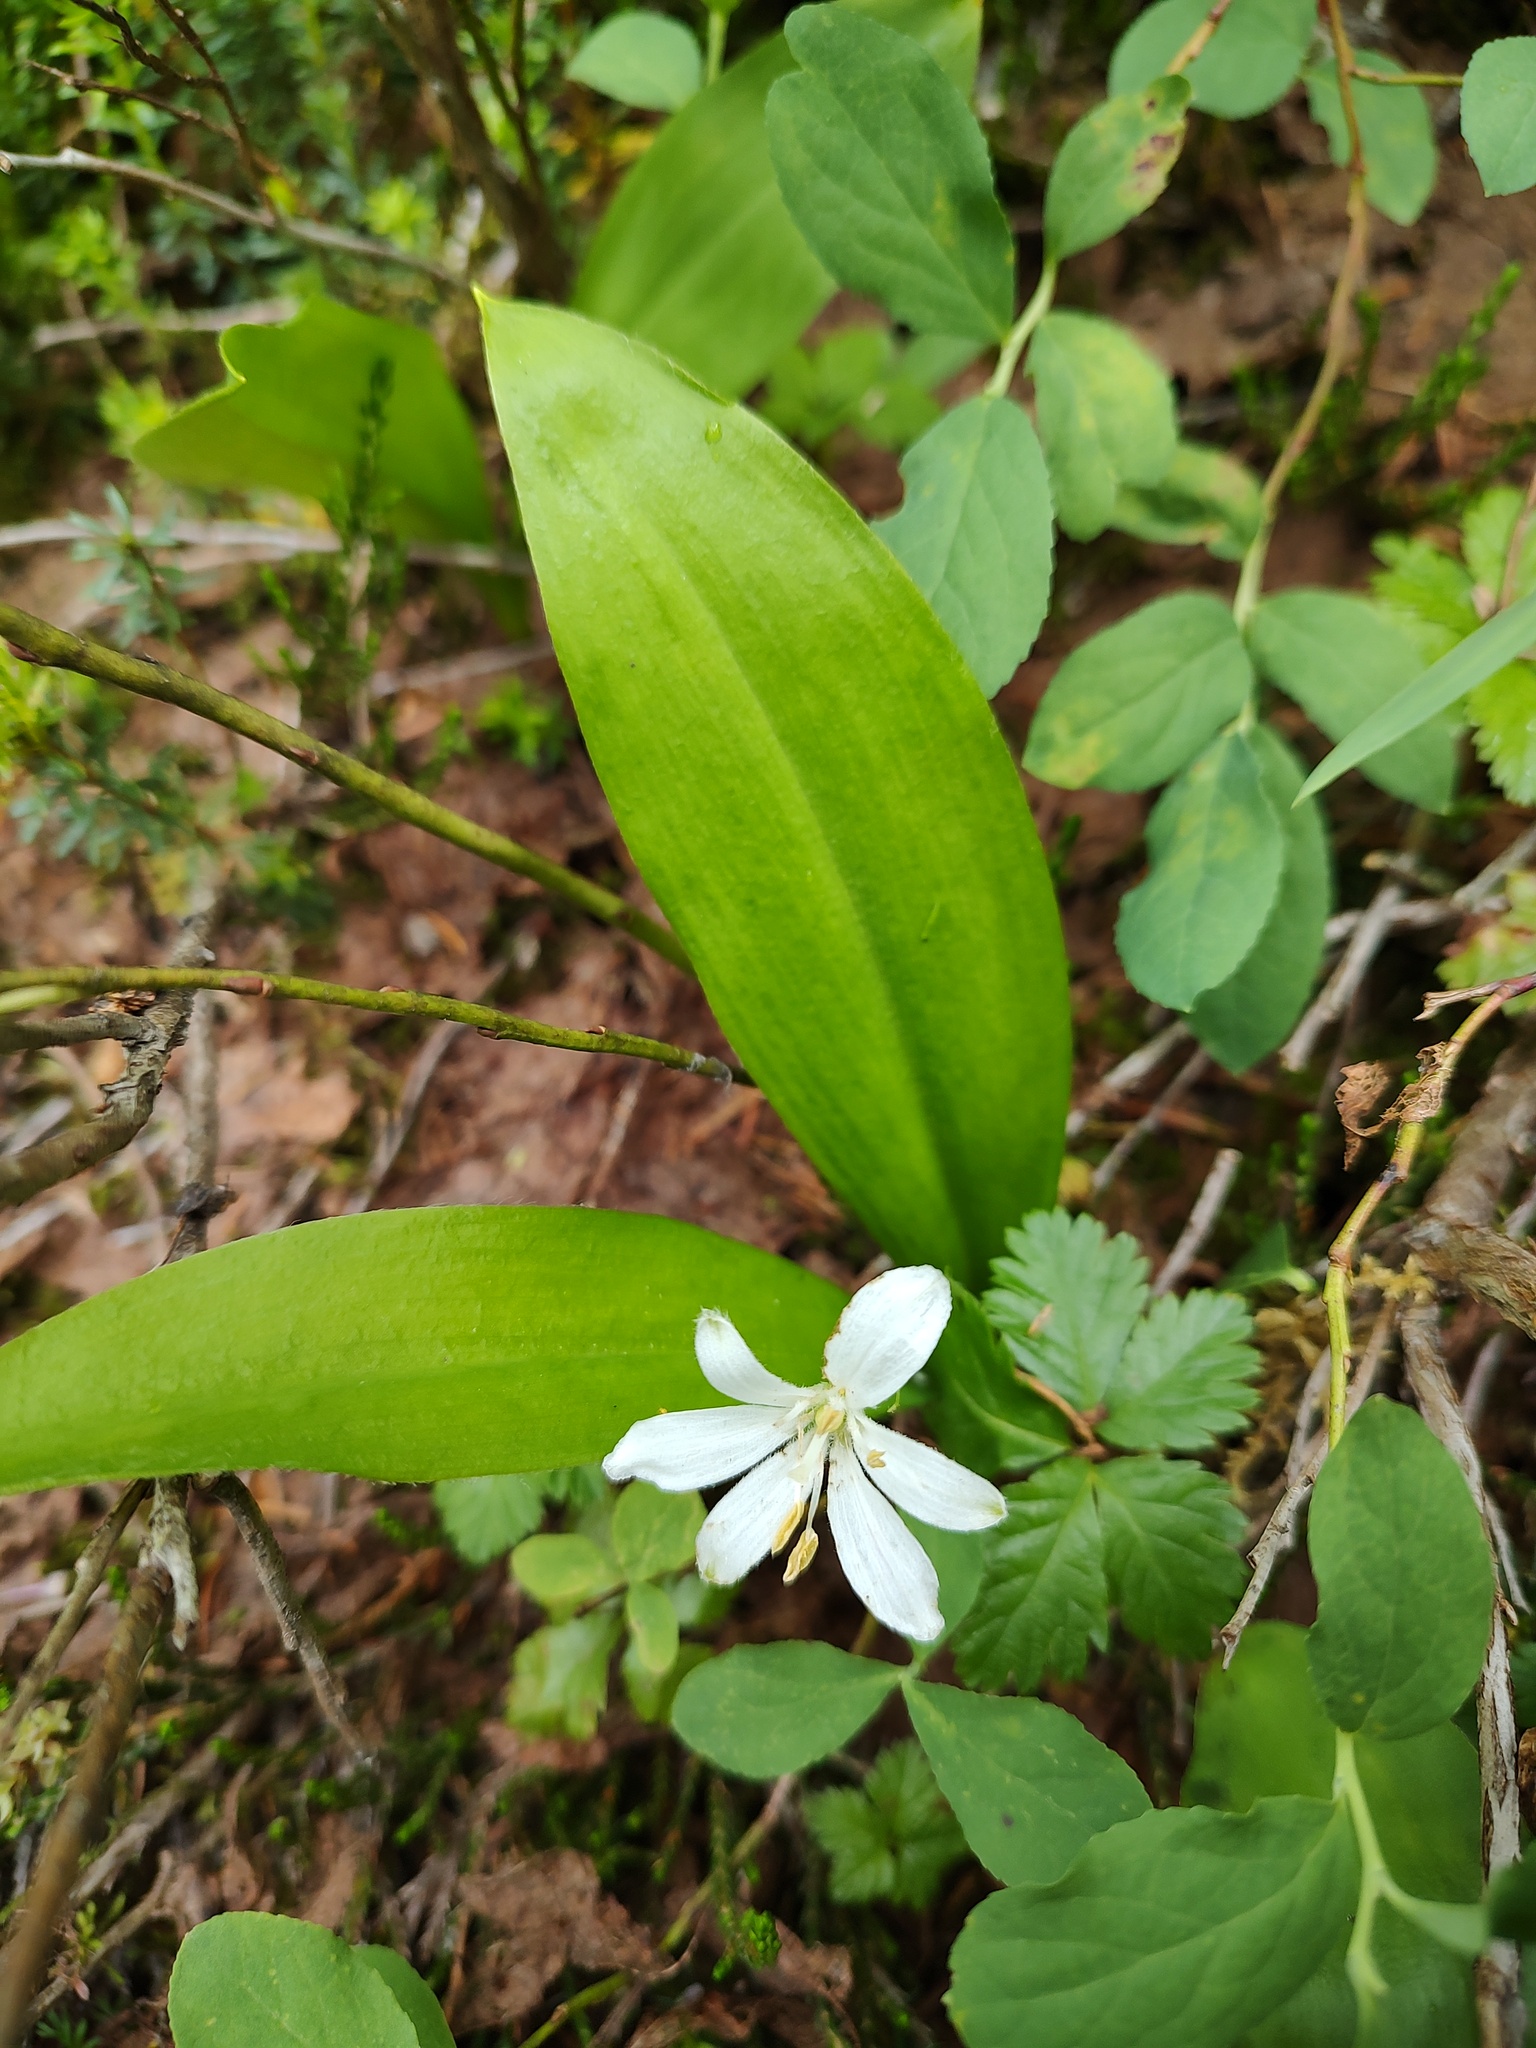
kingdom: Plantae
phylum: Tracheophyta
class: Liliopsida
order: Liliales
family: Liliaceae
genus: Clintonia
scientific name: Clintonia uniflora
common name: Queen's cup
